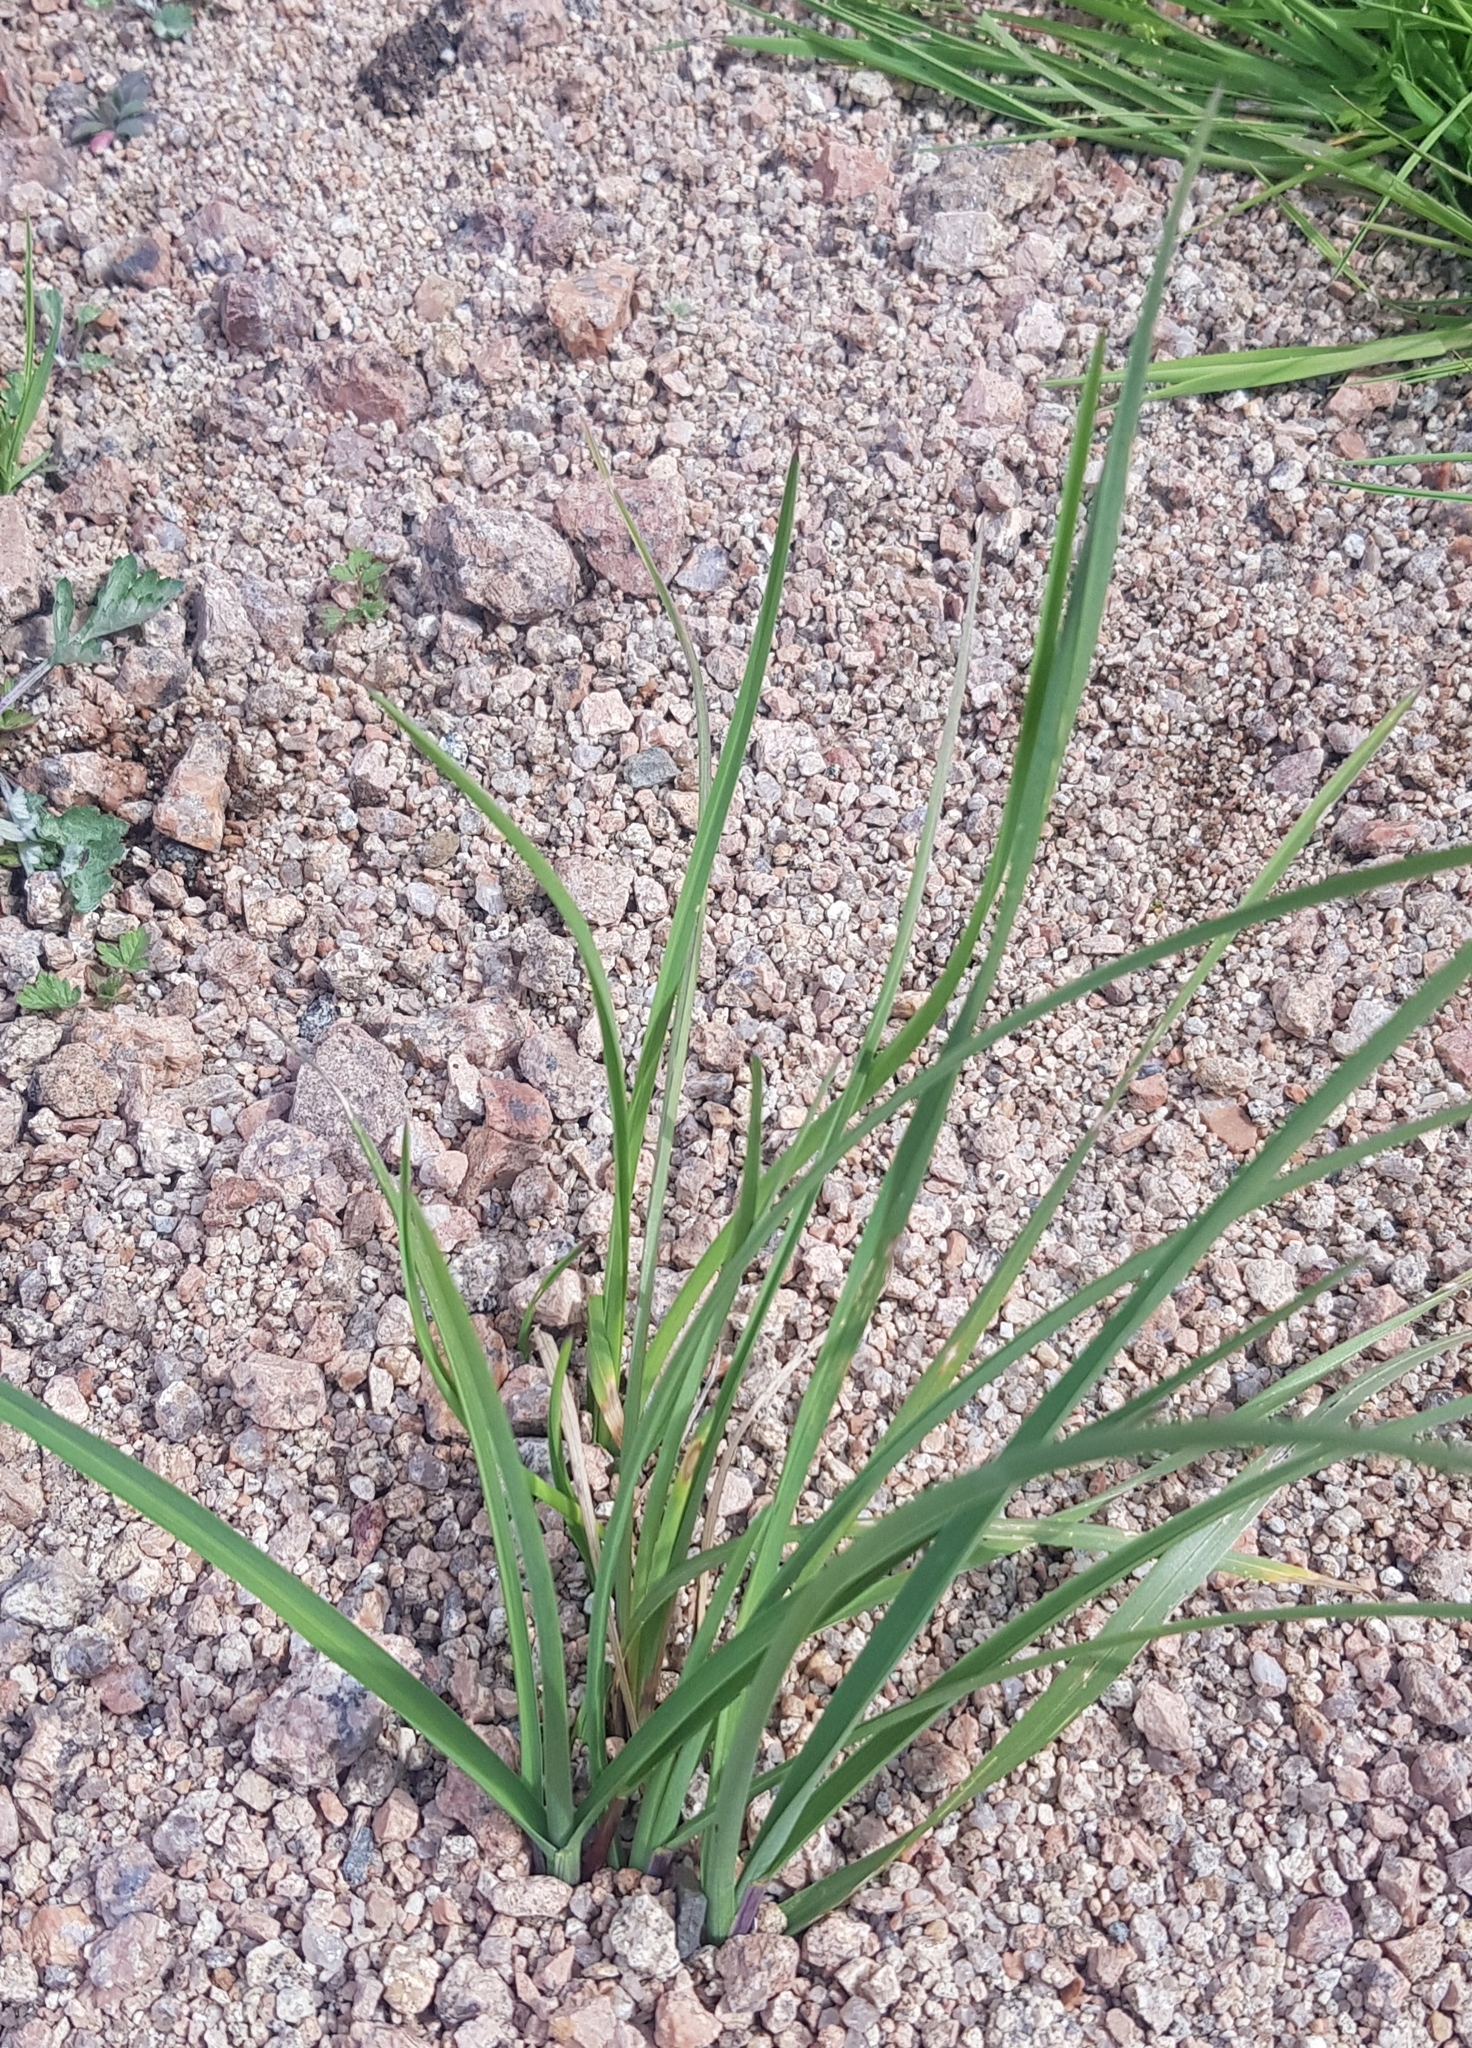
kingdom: Plantae
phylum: Tracheophyta
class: Liliopsida
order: Poales
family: Poaceae
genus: Elymus
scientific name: Elymus repens
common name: Quackgrass
